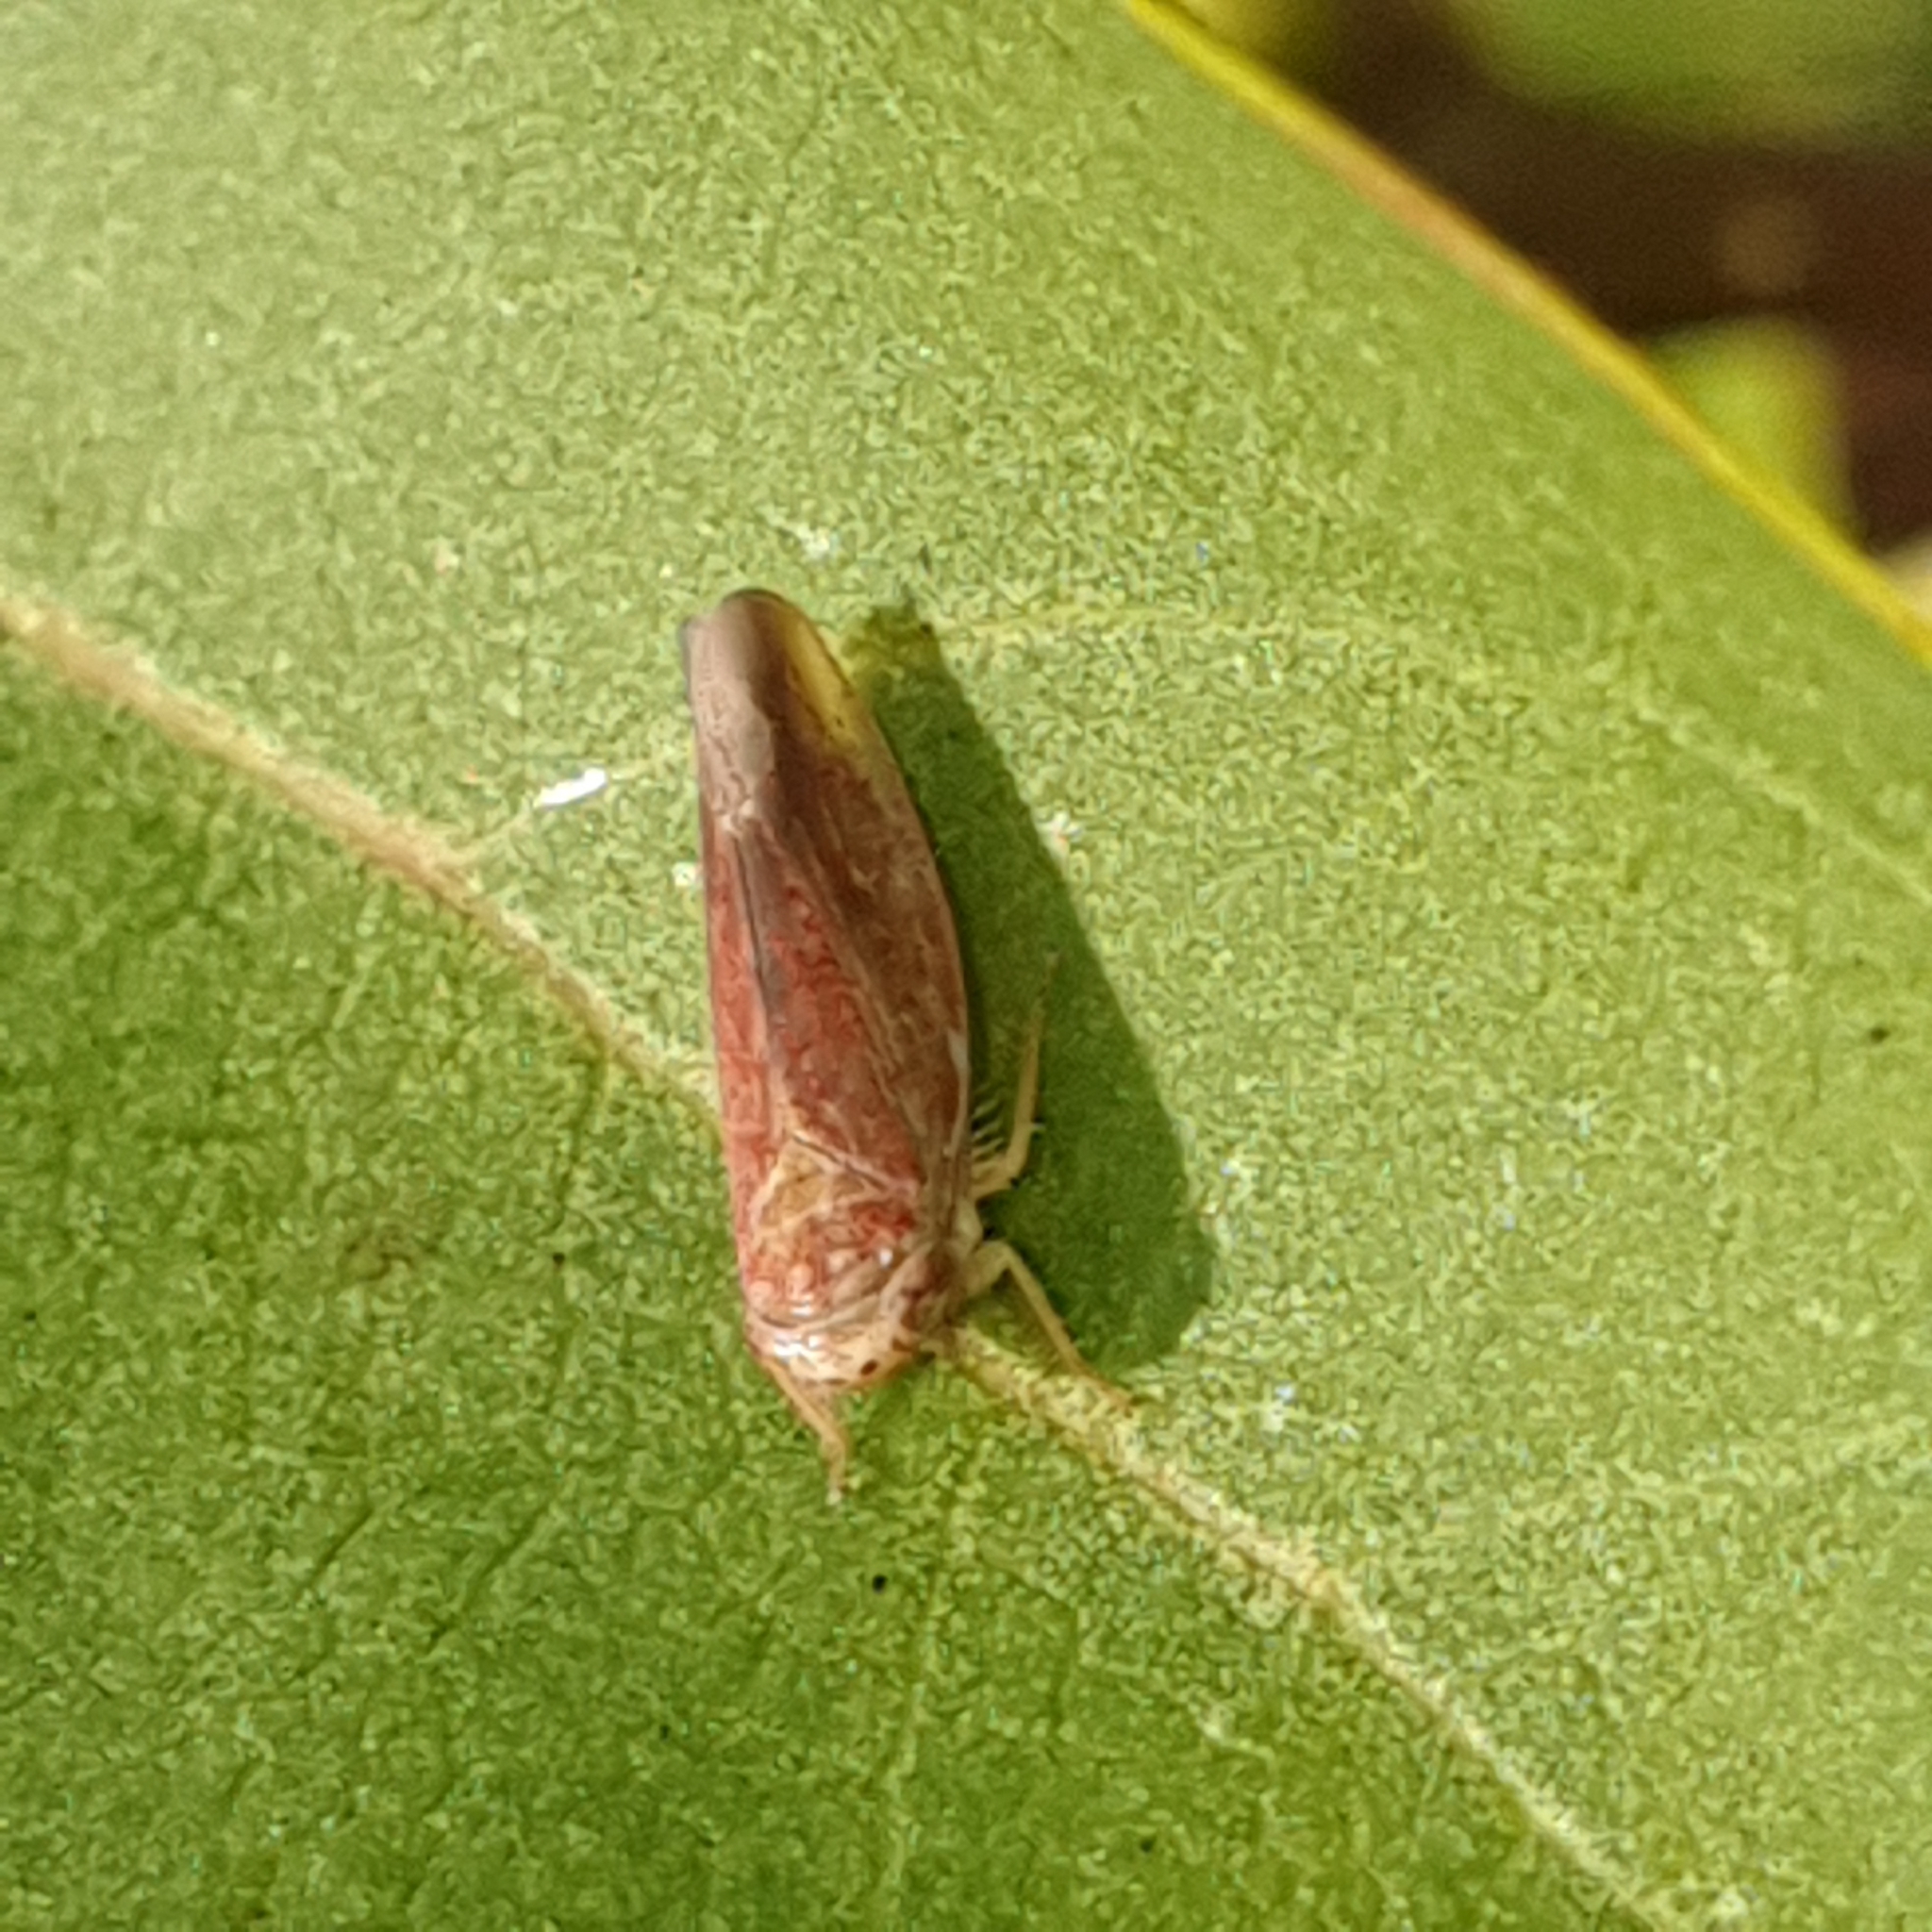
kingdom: Animalia
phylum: Arthropoda
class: Insecta
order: Hemiptera
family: Cicadellidae
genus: Idiodonus
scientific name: Idiodonus cruentatus
